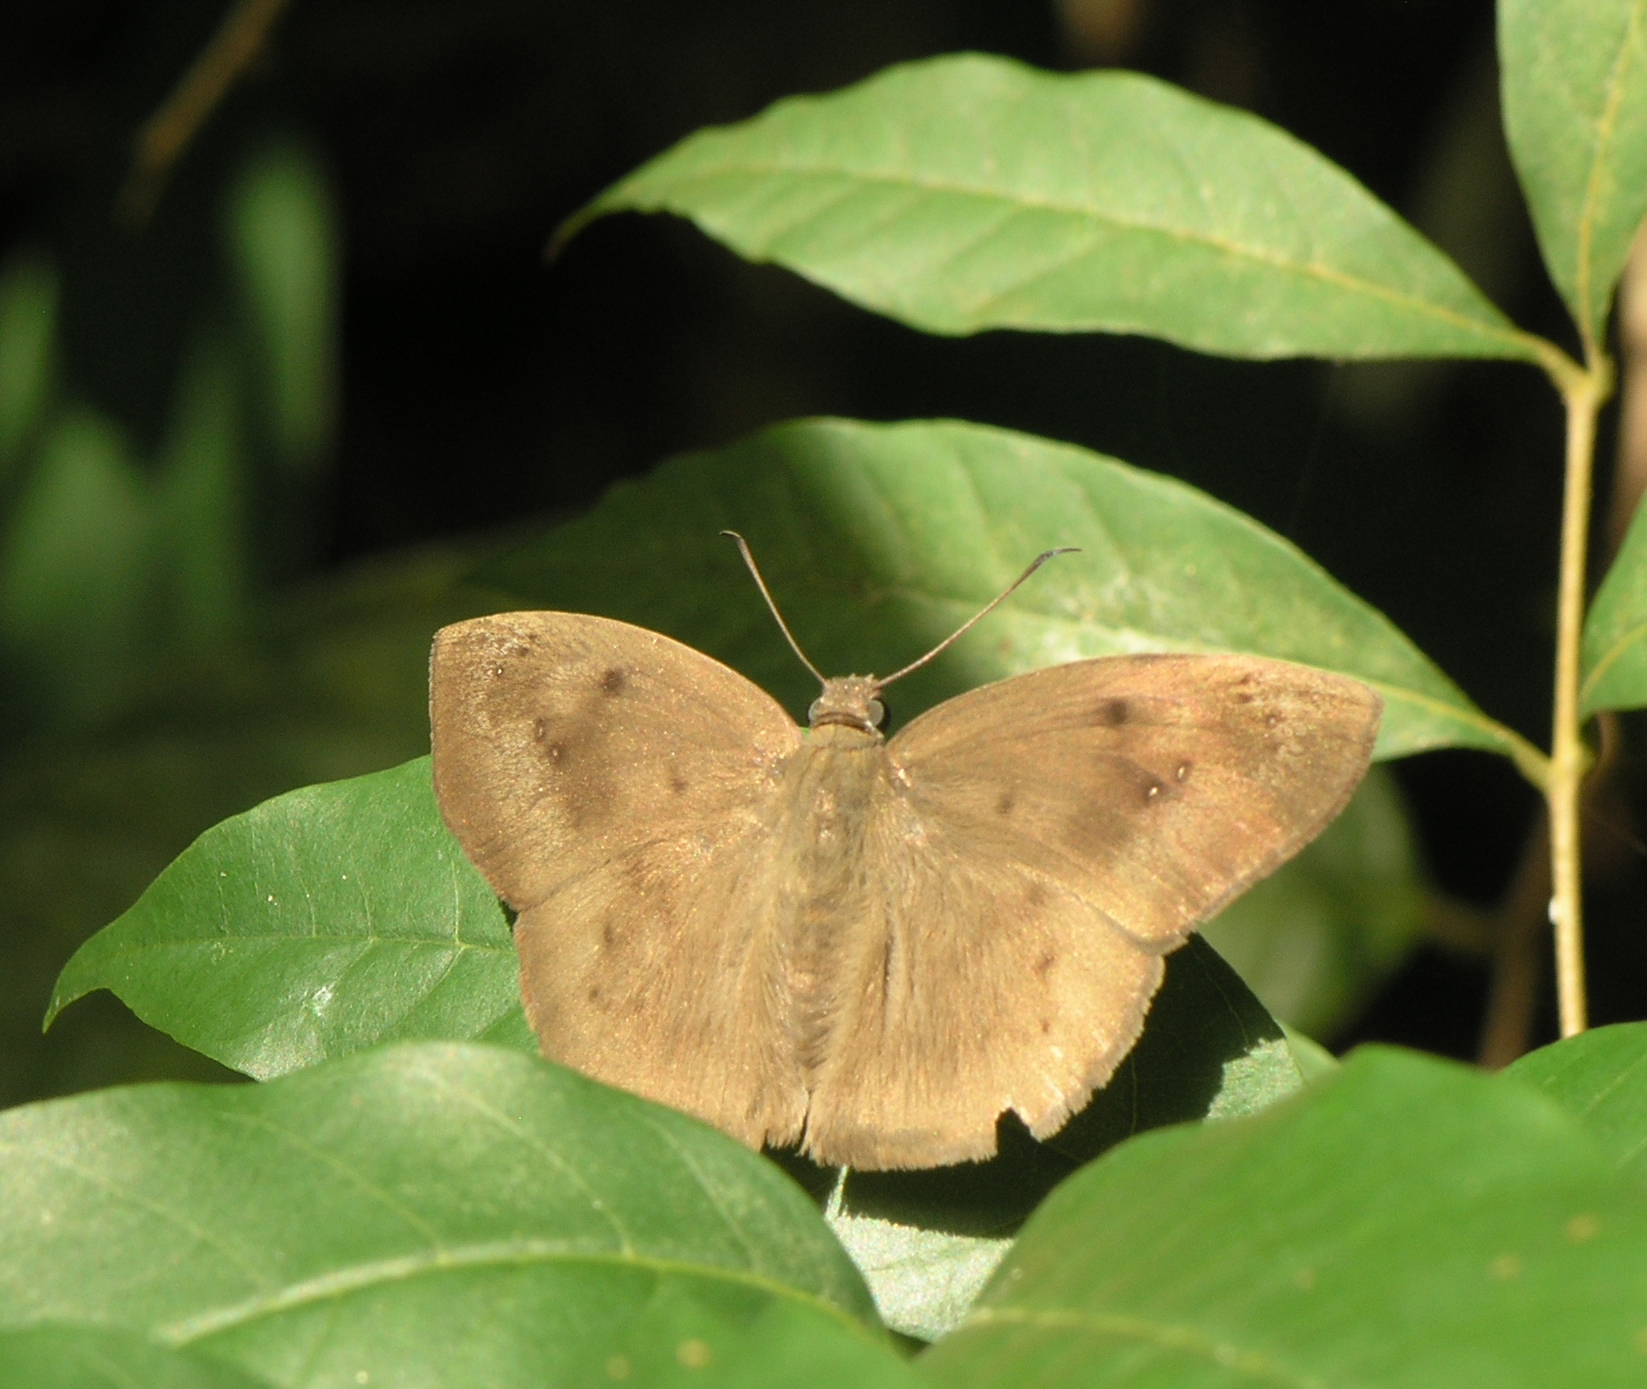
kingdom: Animalia
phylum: Arthropoda
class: Insecta
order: Lepidoptera
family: Hesperiidae
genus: Tagiades
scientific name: Tagiades japetus
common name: Pied flat
